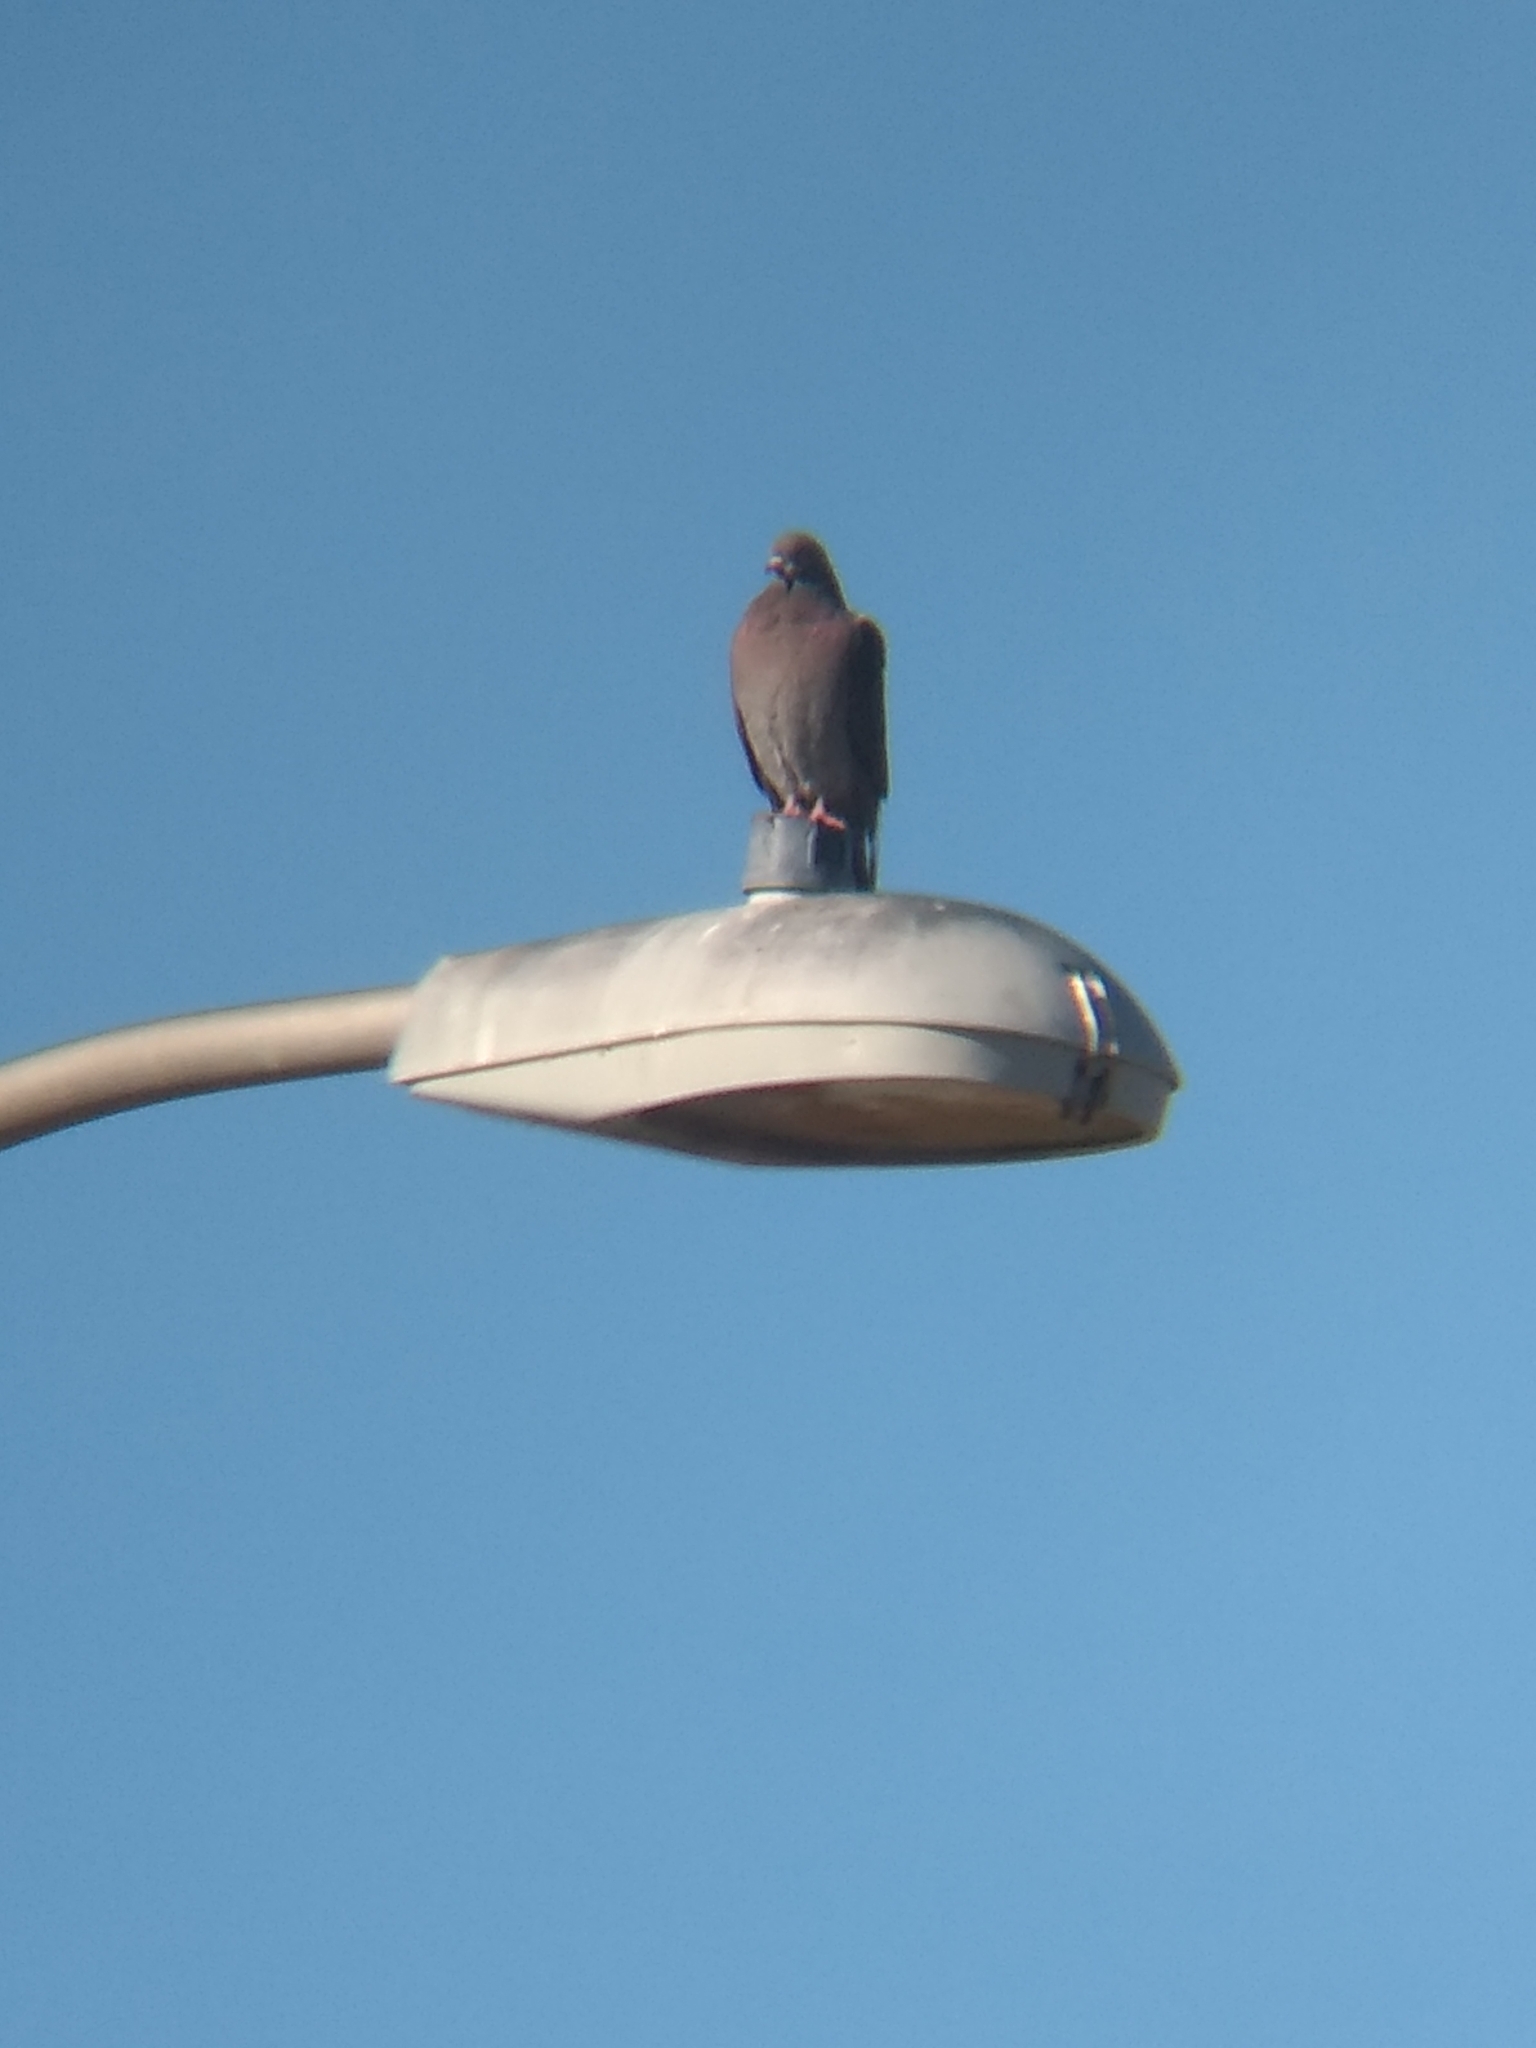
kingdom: Animalia
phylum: Chordata
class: Aves
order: Columbiformes
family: Columbidae
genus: Columba
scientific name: Columba livia
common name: Rock pigeon
